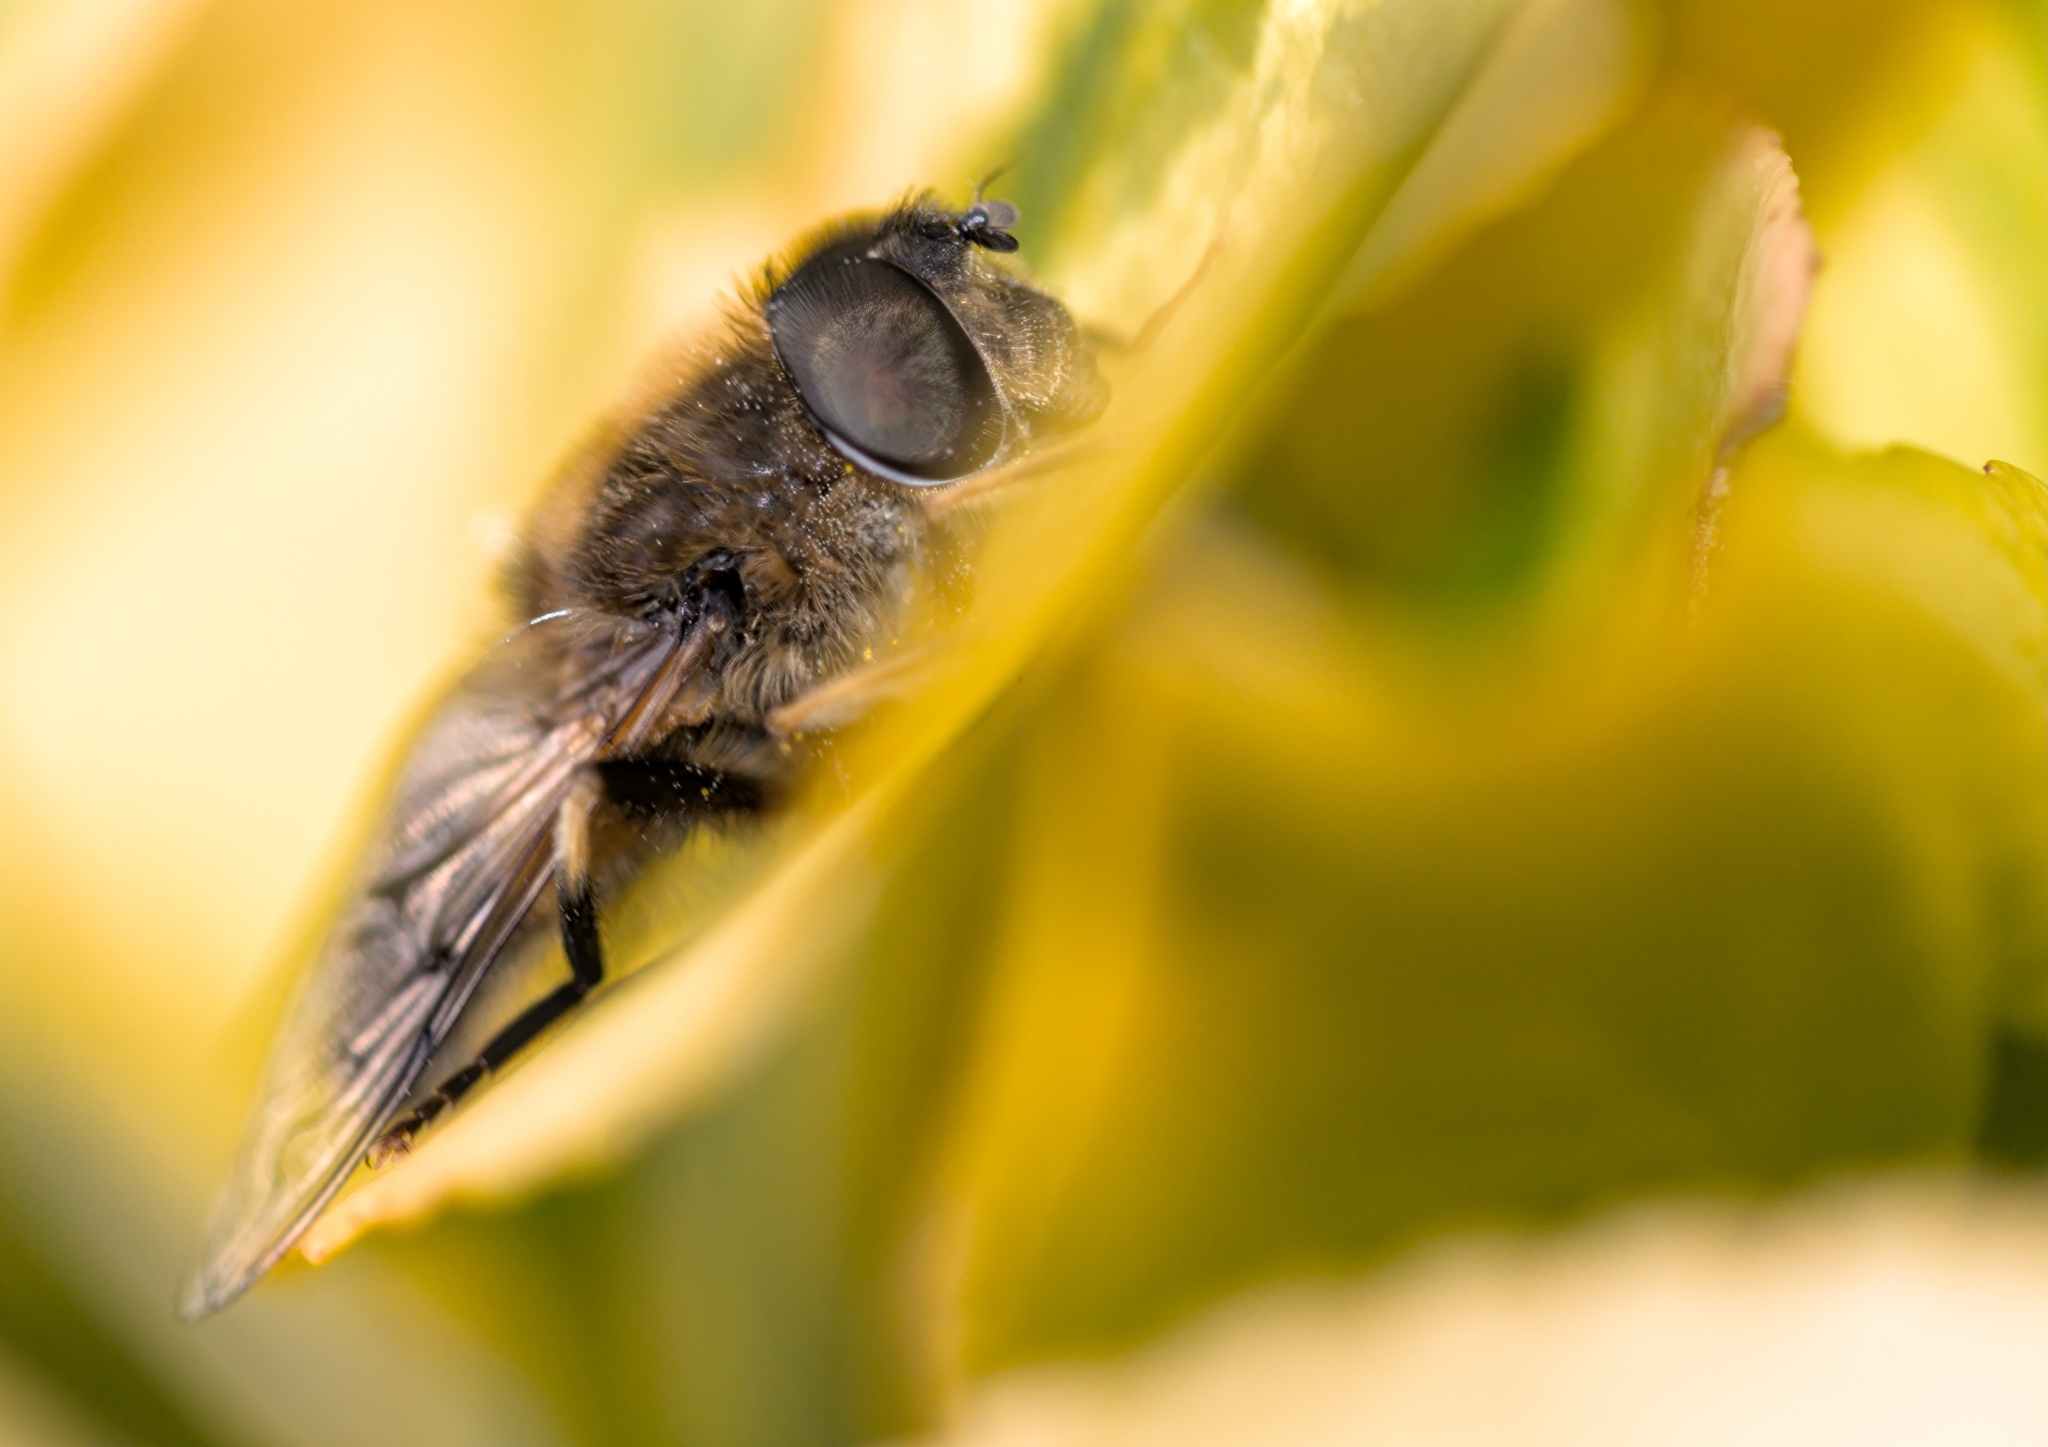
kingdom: Animalia
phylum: Arthropoda
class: Insecta
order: Diptera
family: Syrphidae
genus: Eristalis
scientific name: Eristalis pertinax
